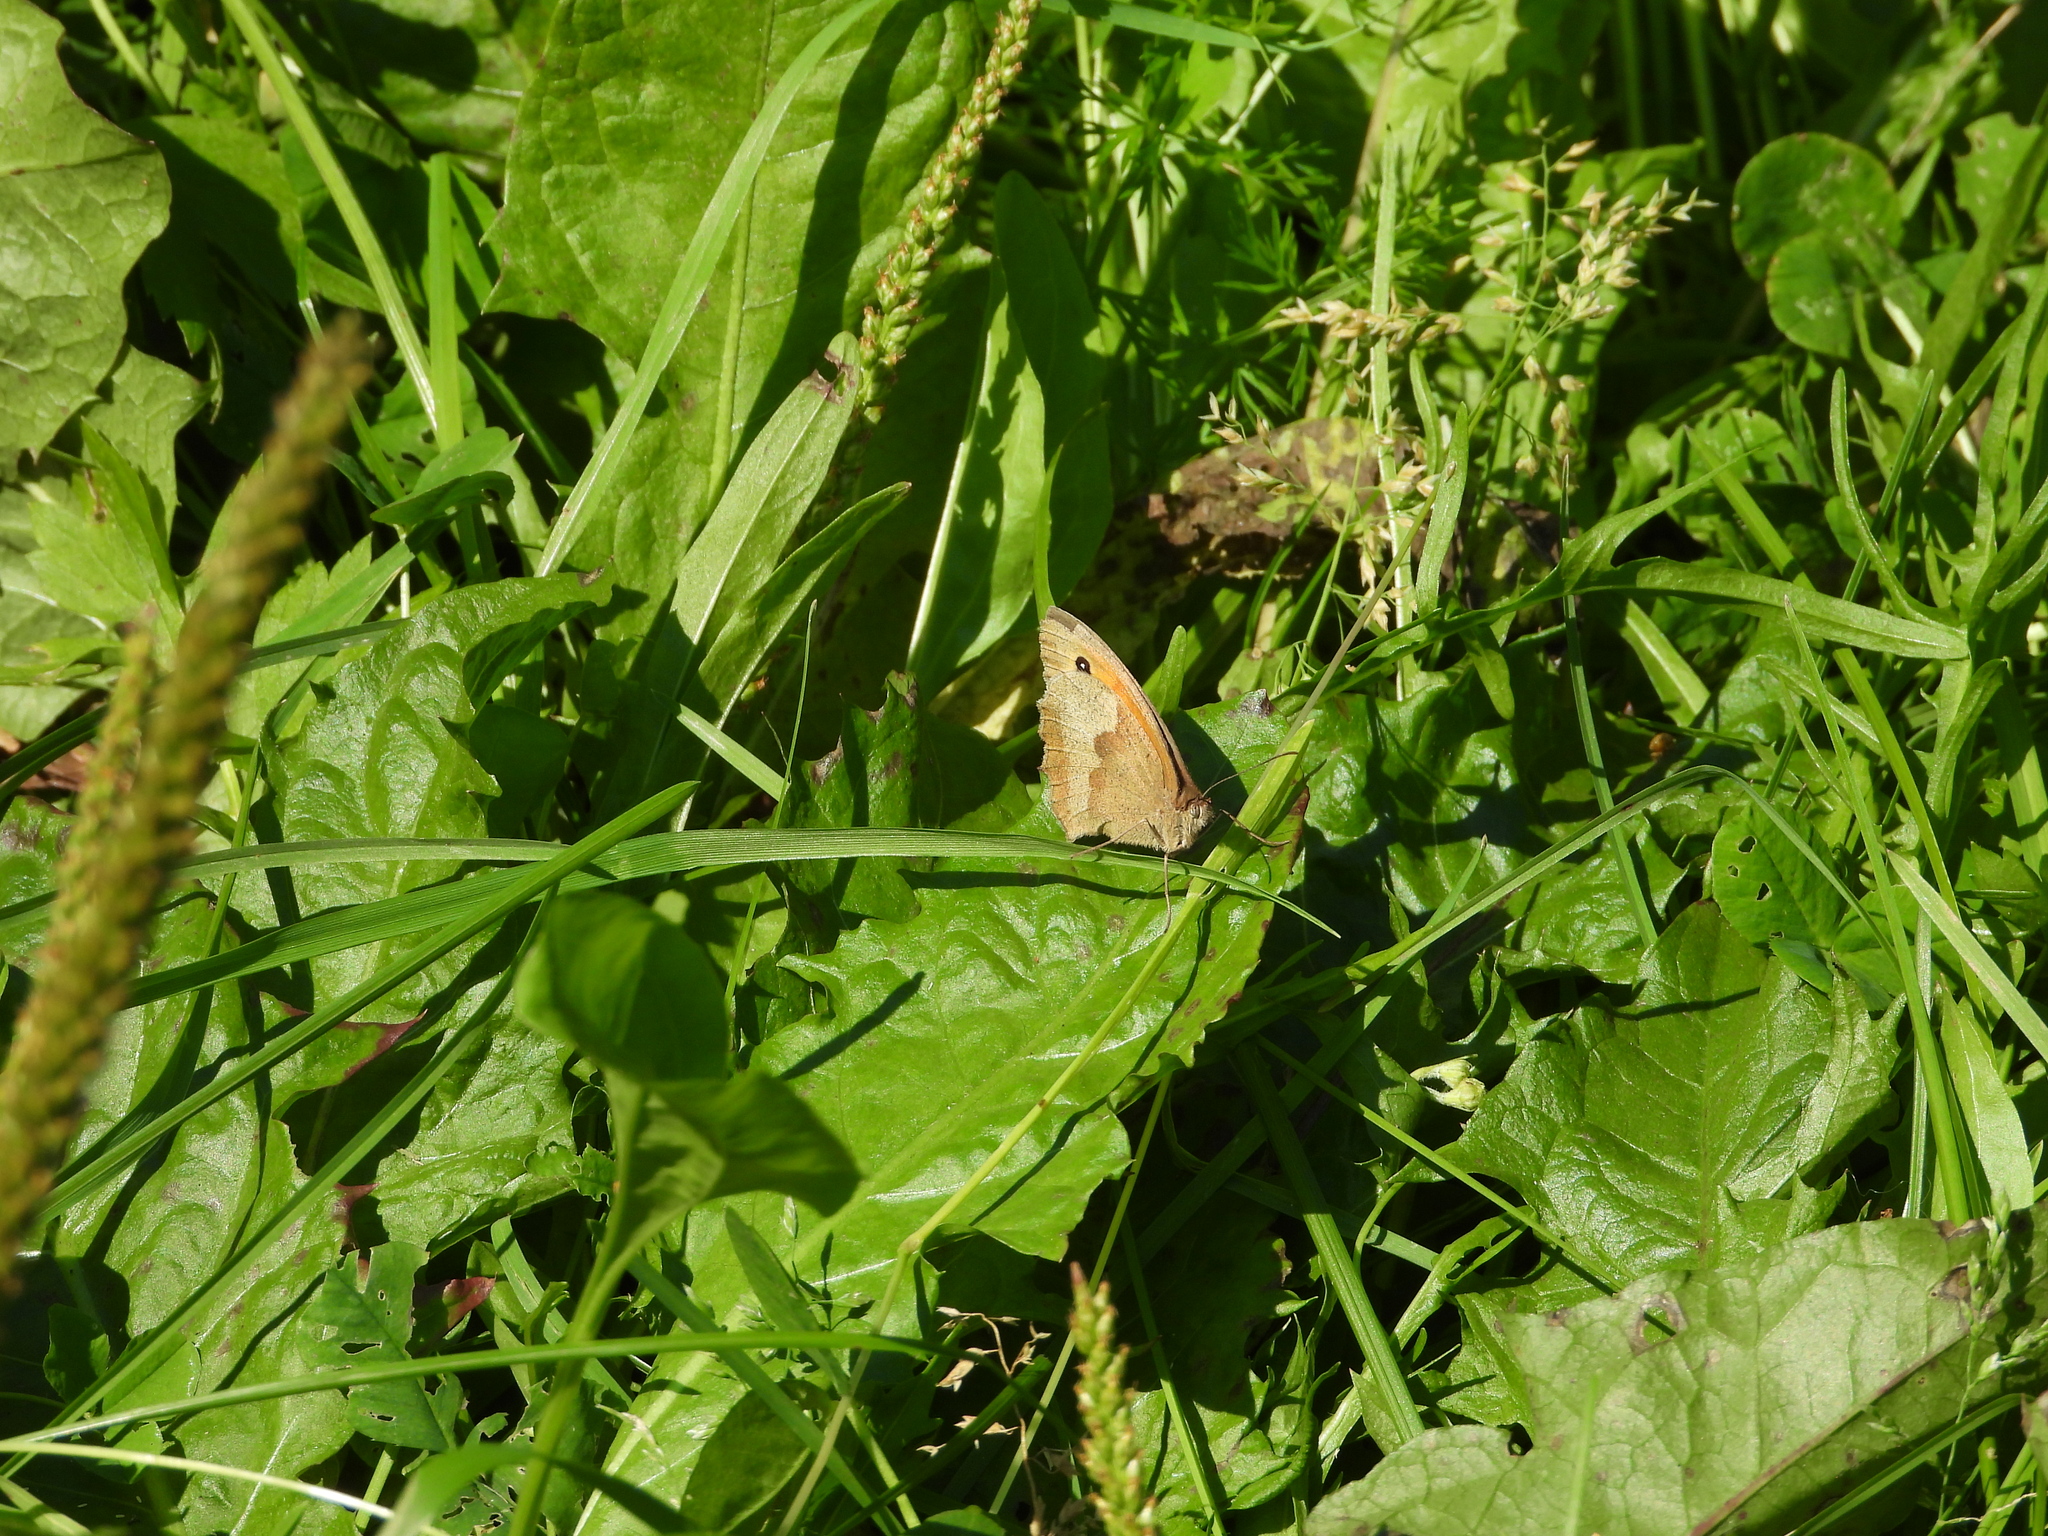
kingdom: Animalia
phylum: Arthropoda
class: Insecta
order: Lepidoptera
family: Nymphalidae
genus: Maniola
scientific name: Maniola jurtina
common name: Meadow brown
